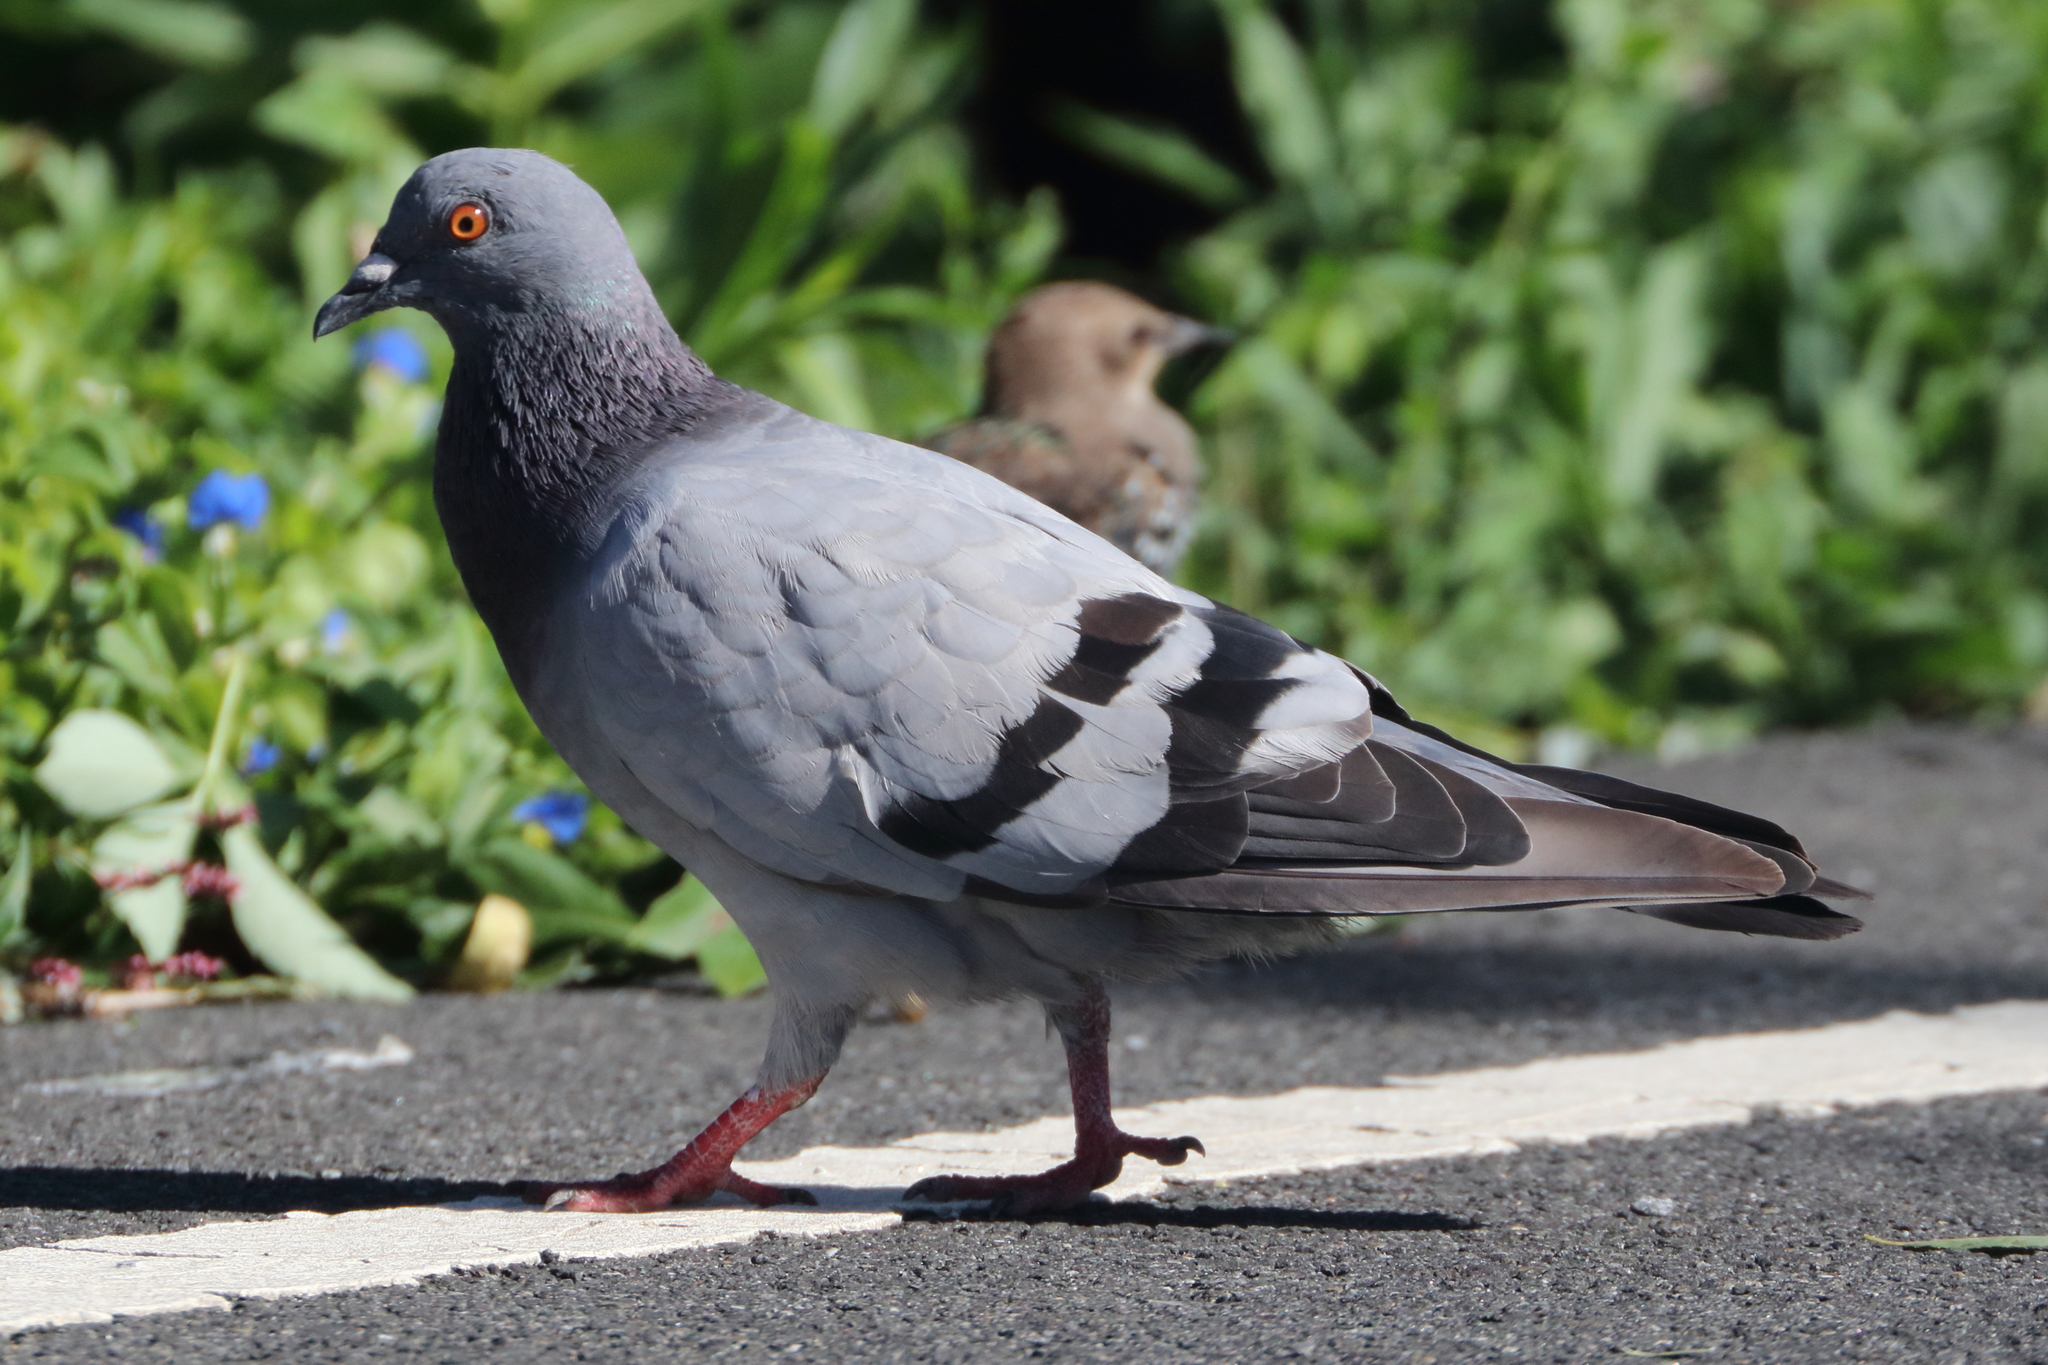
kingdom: Animalia
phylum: Chordata
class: Aves
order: Columbiformes
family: Columbidae
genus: Columba
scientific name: Columba livia
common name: Rock pigeon
